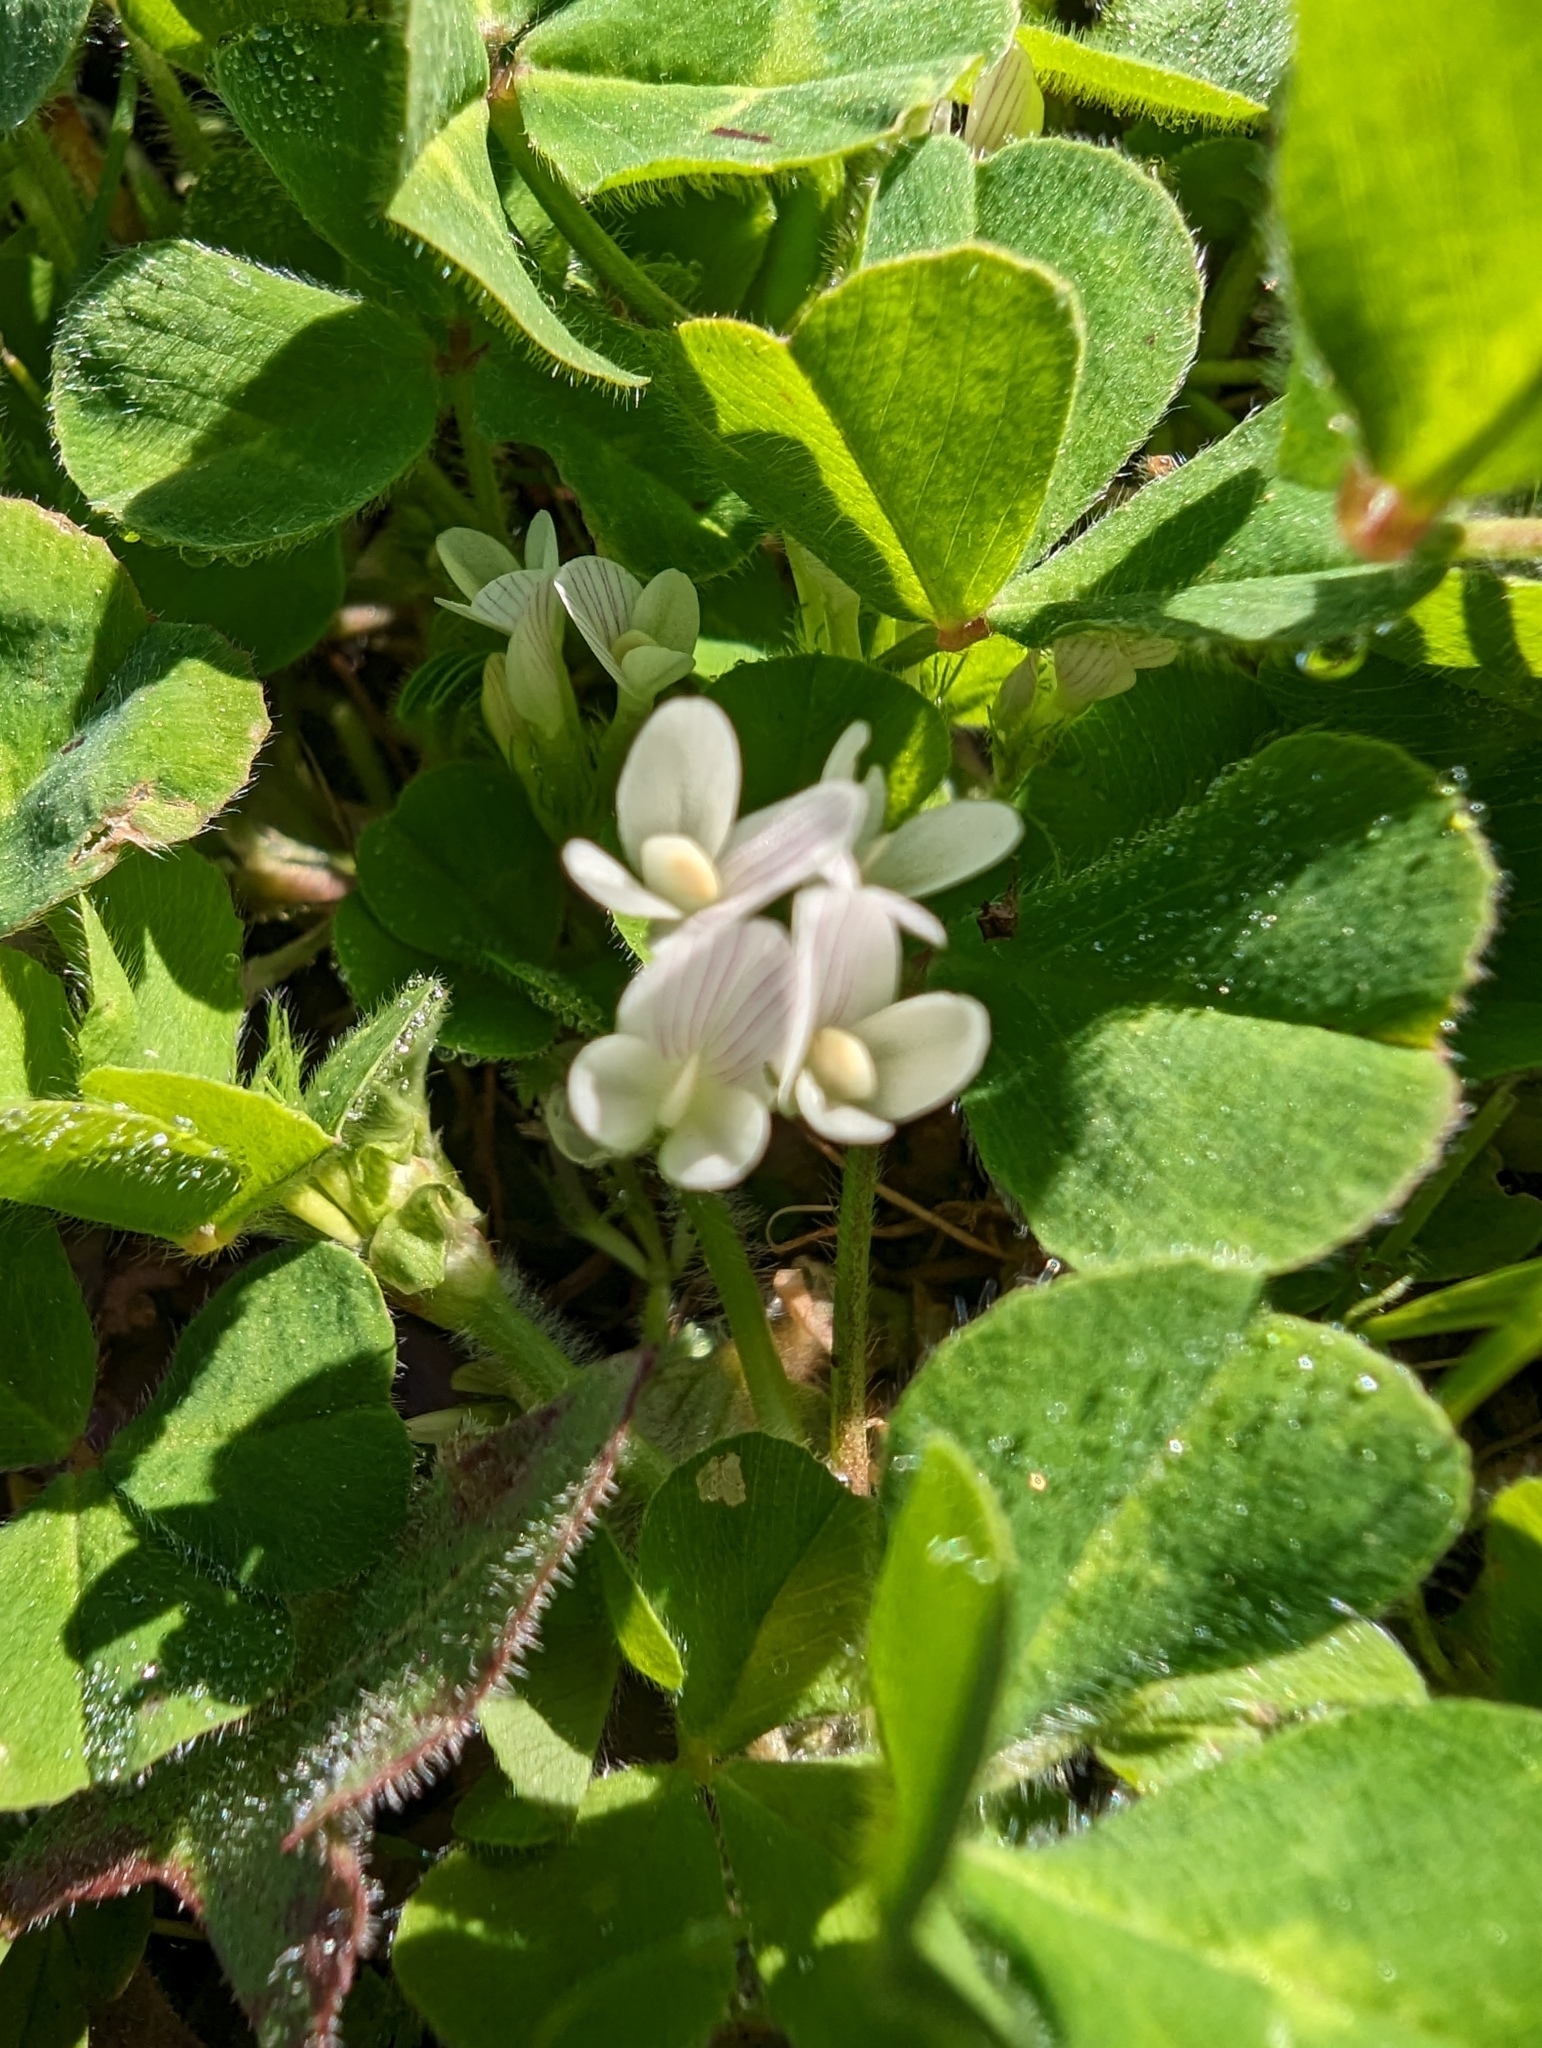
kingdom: Plantae
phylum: Tracheophyta
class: Magnoliopsida
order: Fabales
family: Fabaceae
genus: Trifolium
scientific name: Trifolium subterraneum
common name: Subterranean clover
